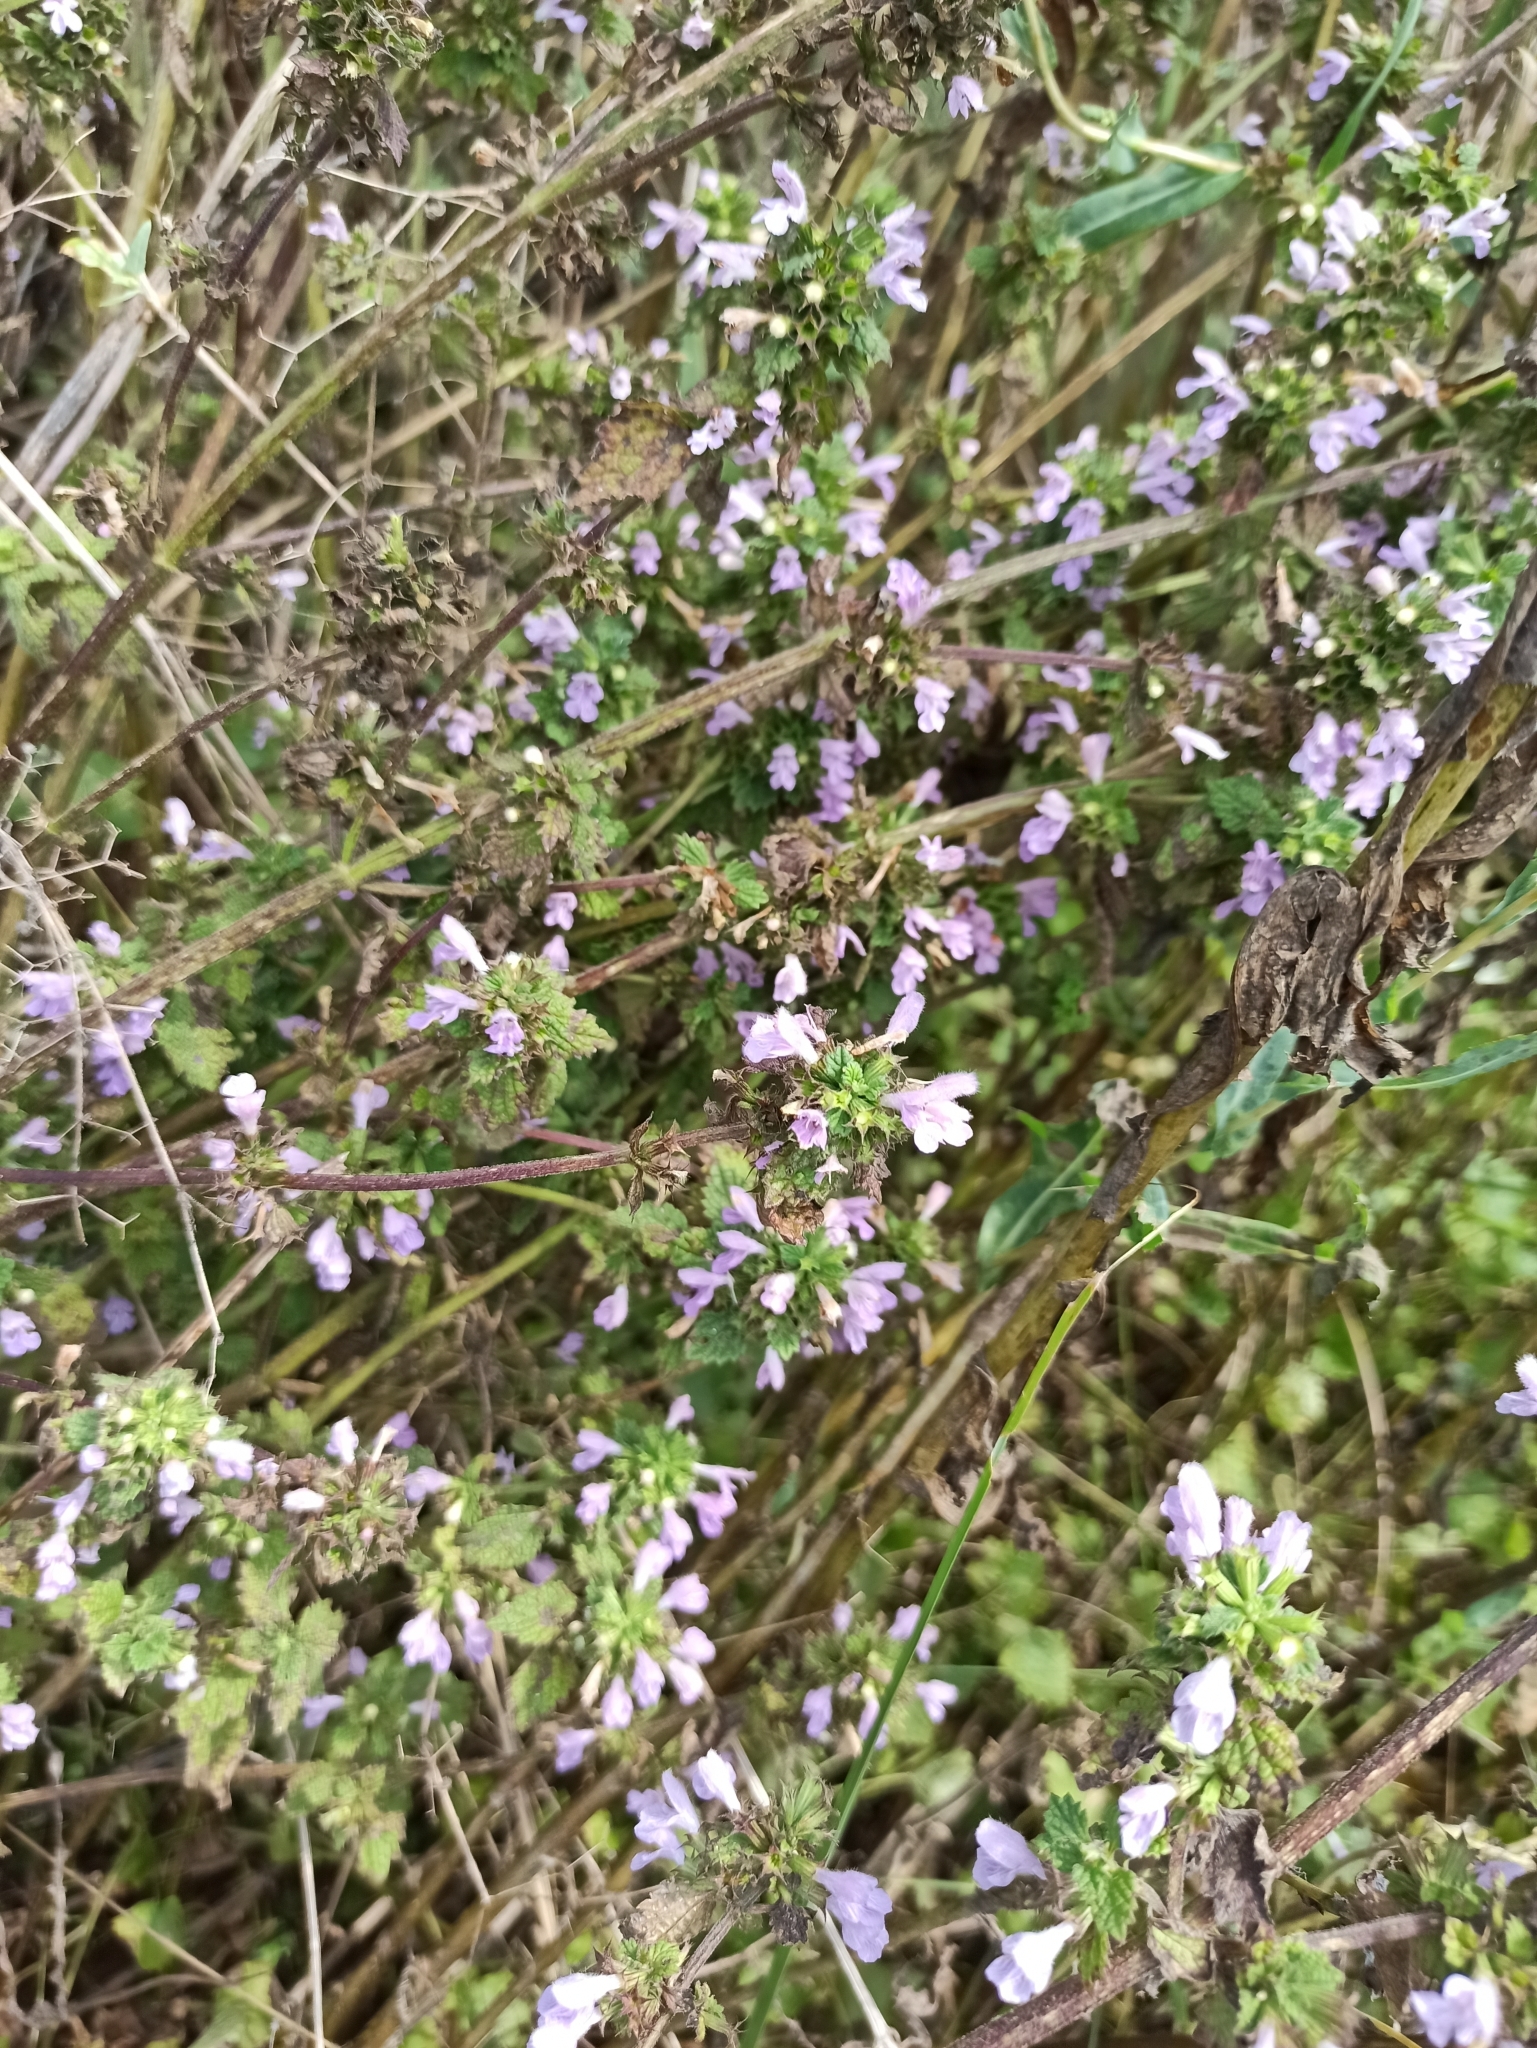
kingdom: Plantae
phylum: Tracheophyta
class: Magnoliopsida
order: Lamiales
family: Lamiaceae
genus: Ballota
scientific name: Ballota nigra
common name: Black horehound
